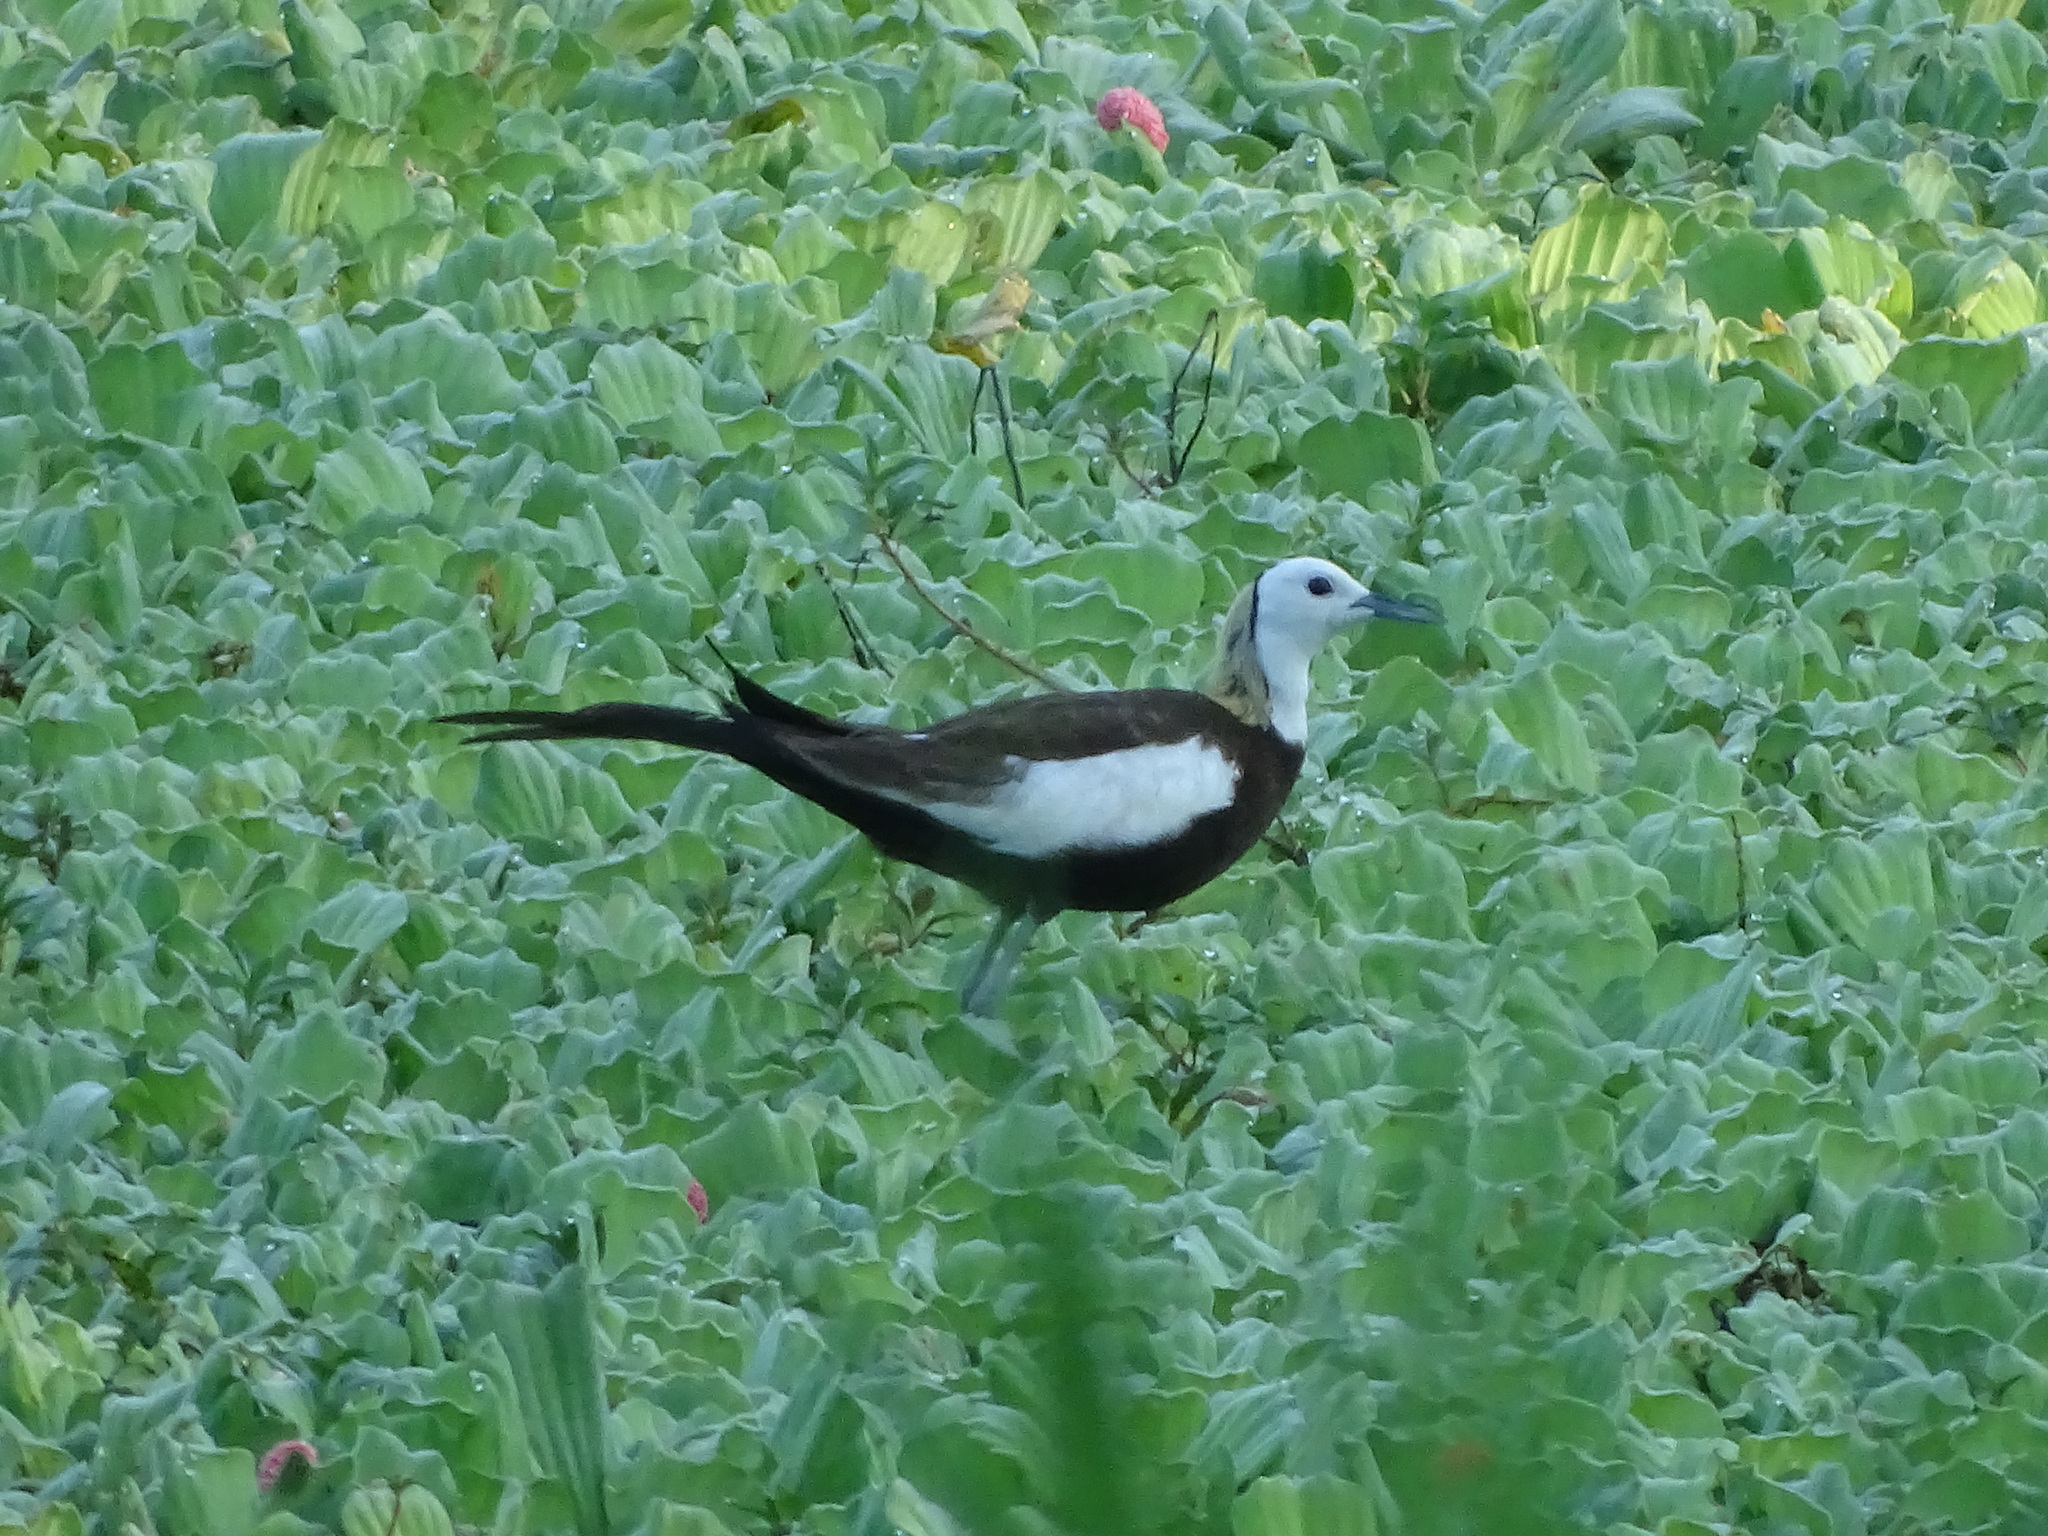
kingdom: Animalia
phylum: Chordata
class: Aves
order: Charadriiformes
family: Jacanidae
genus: Hydrophasianus
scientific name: Hydrophasianus chirurgus
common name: Pheasant-tailed jacana
